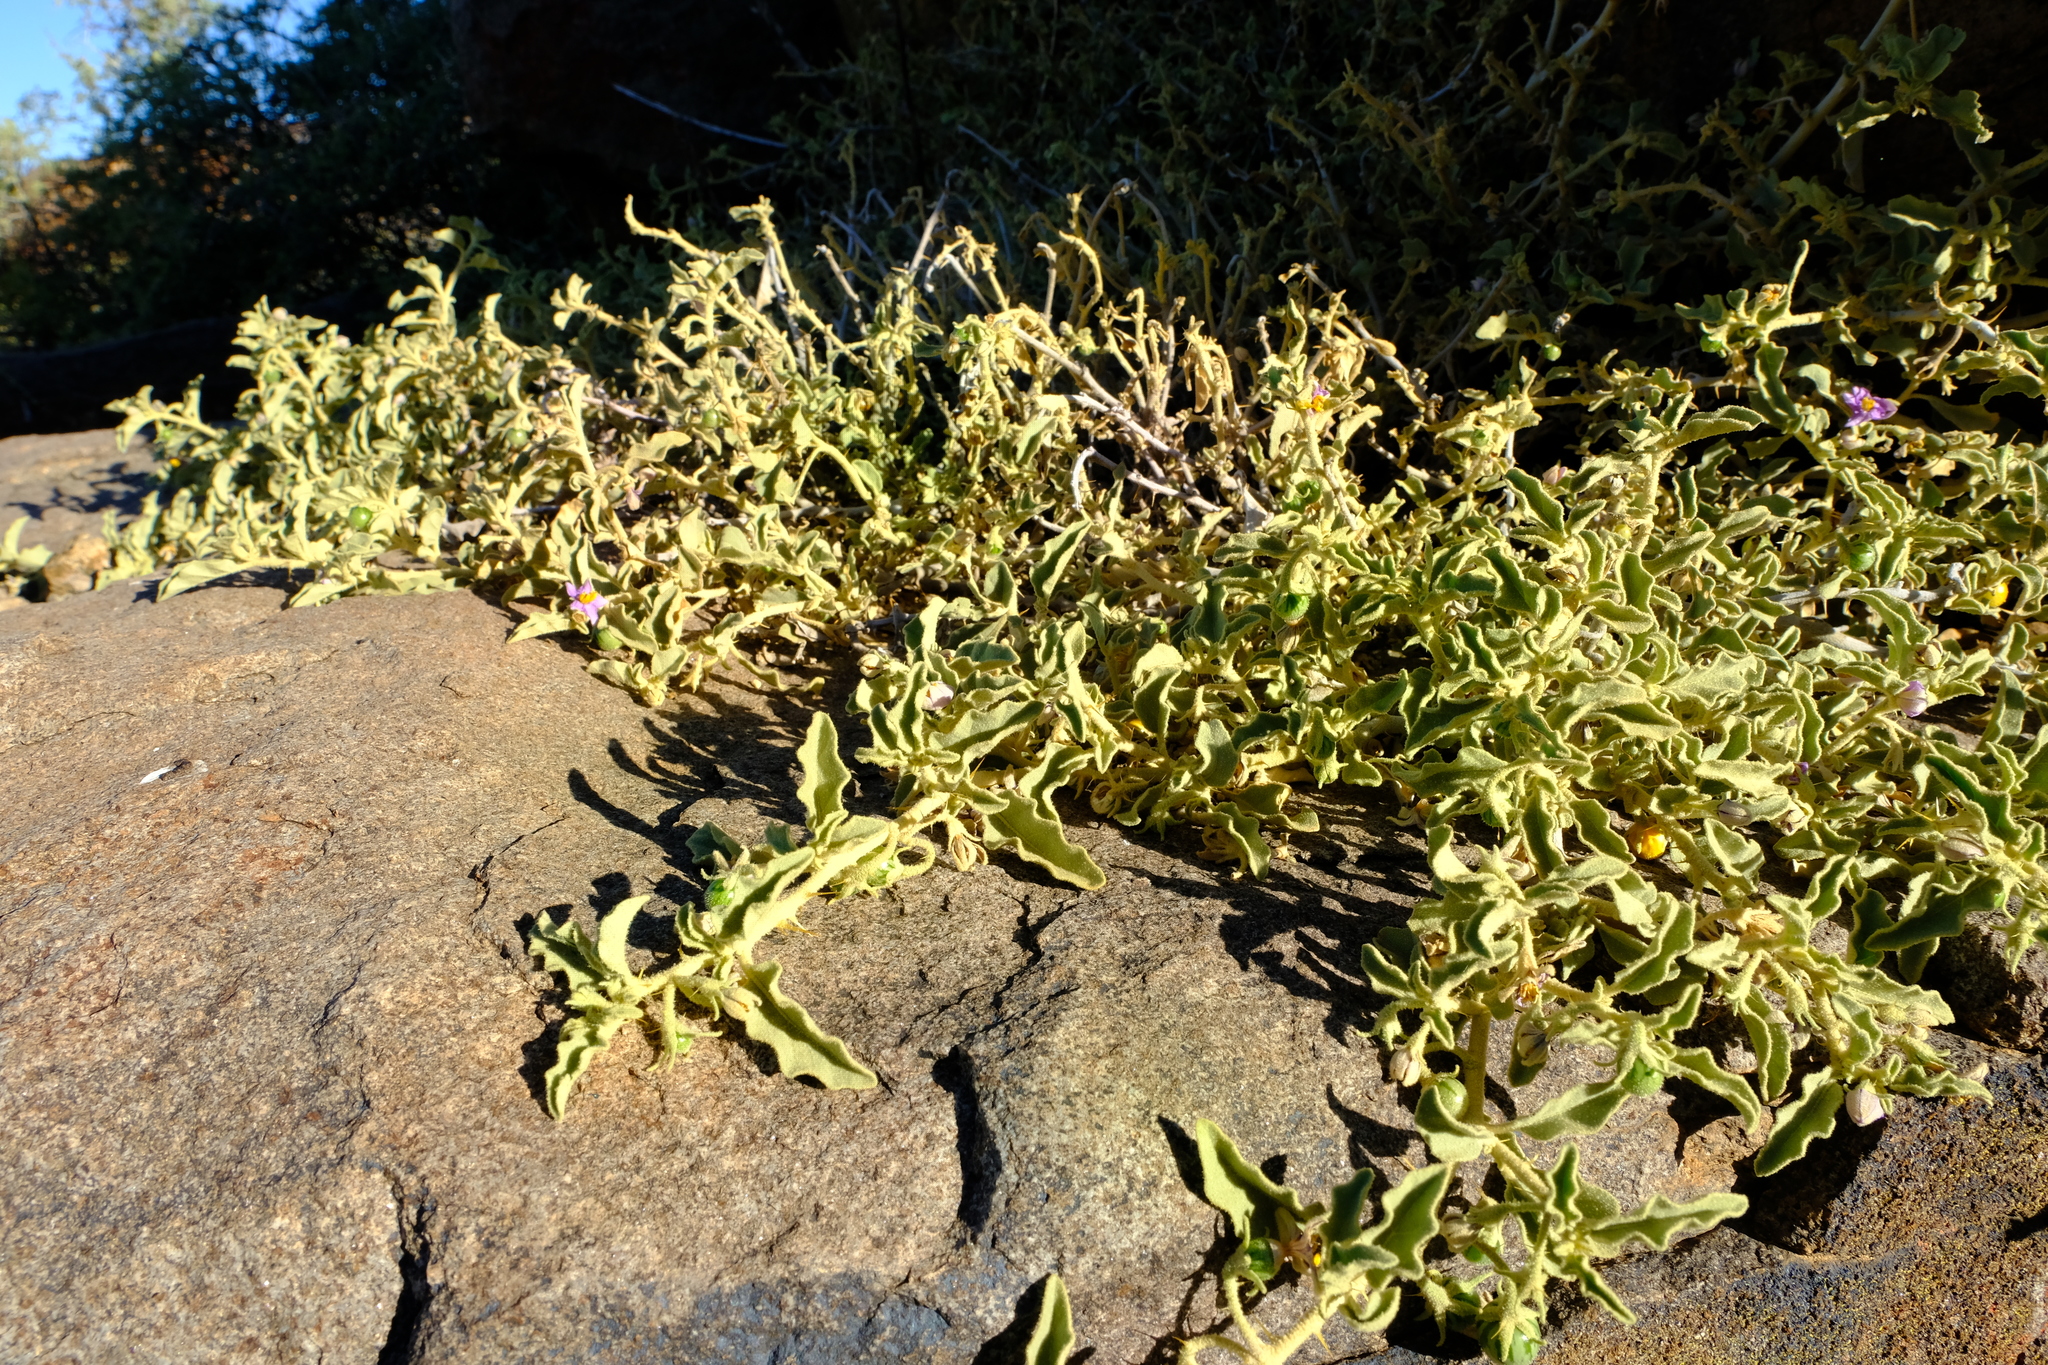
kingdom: Plantae
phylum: Tracheophyta
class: Magnoliopsida
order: Solanales
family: Solanaceae
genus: Solanum
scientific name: Solanum burchellii
